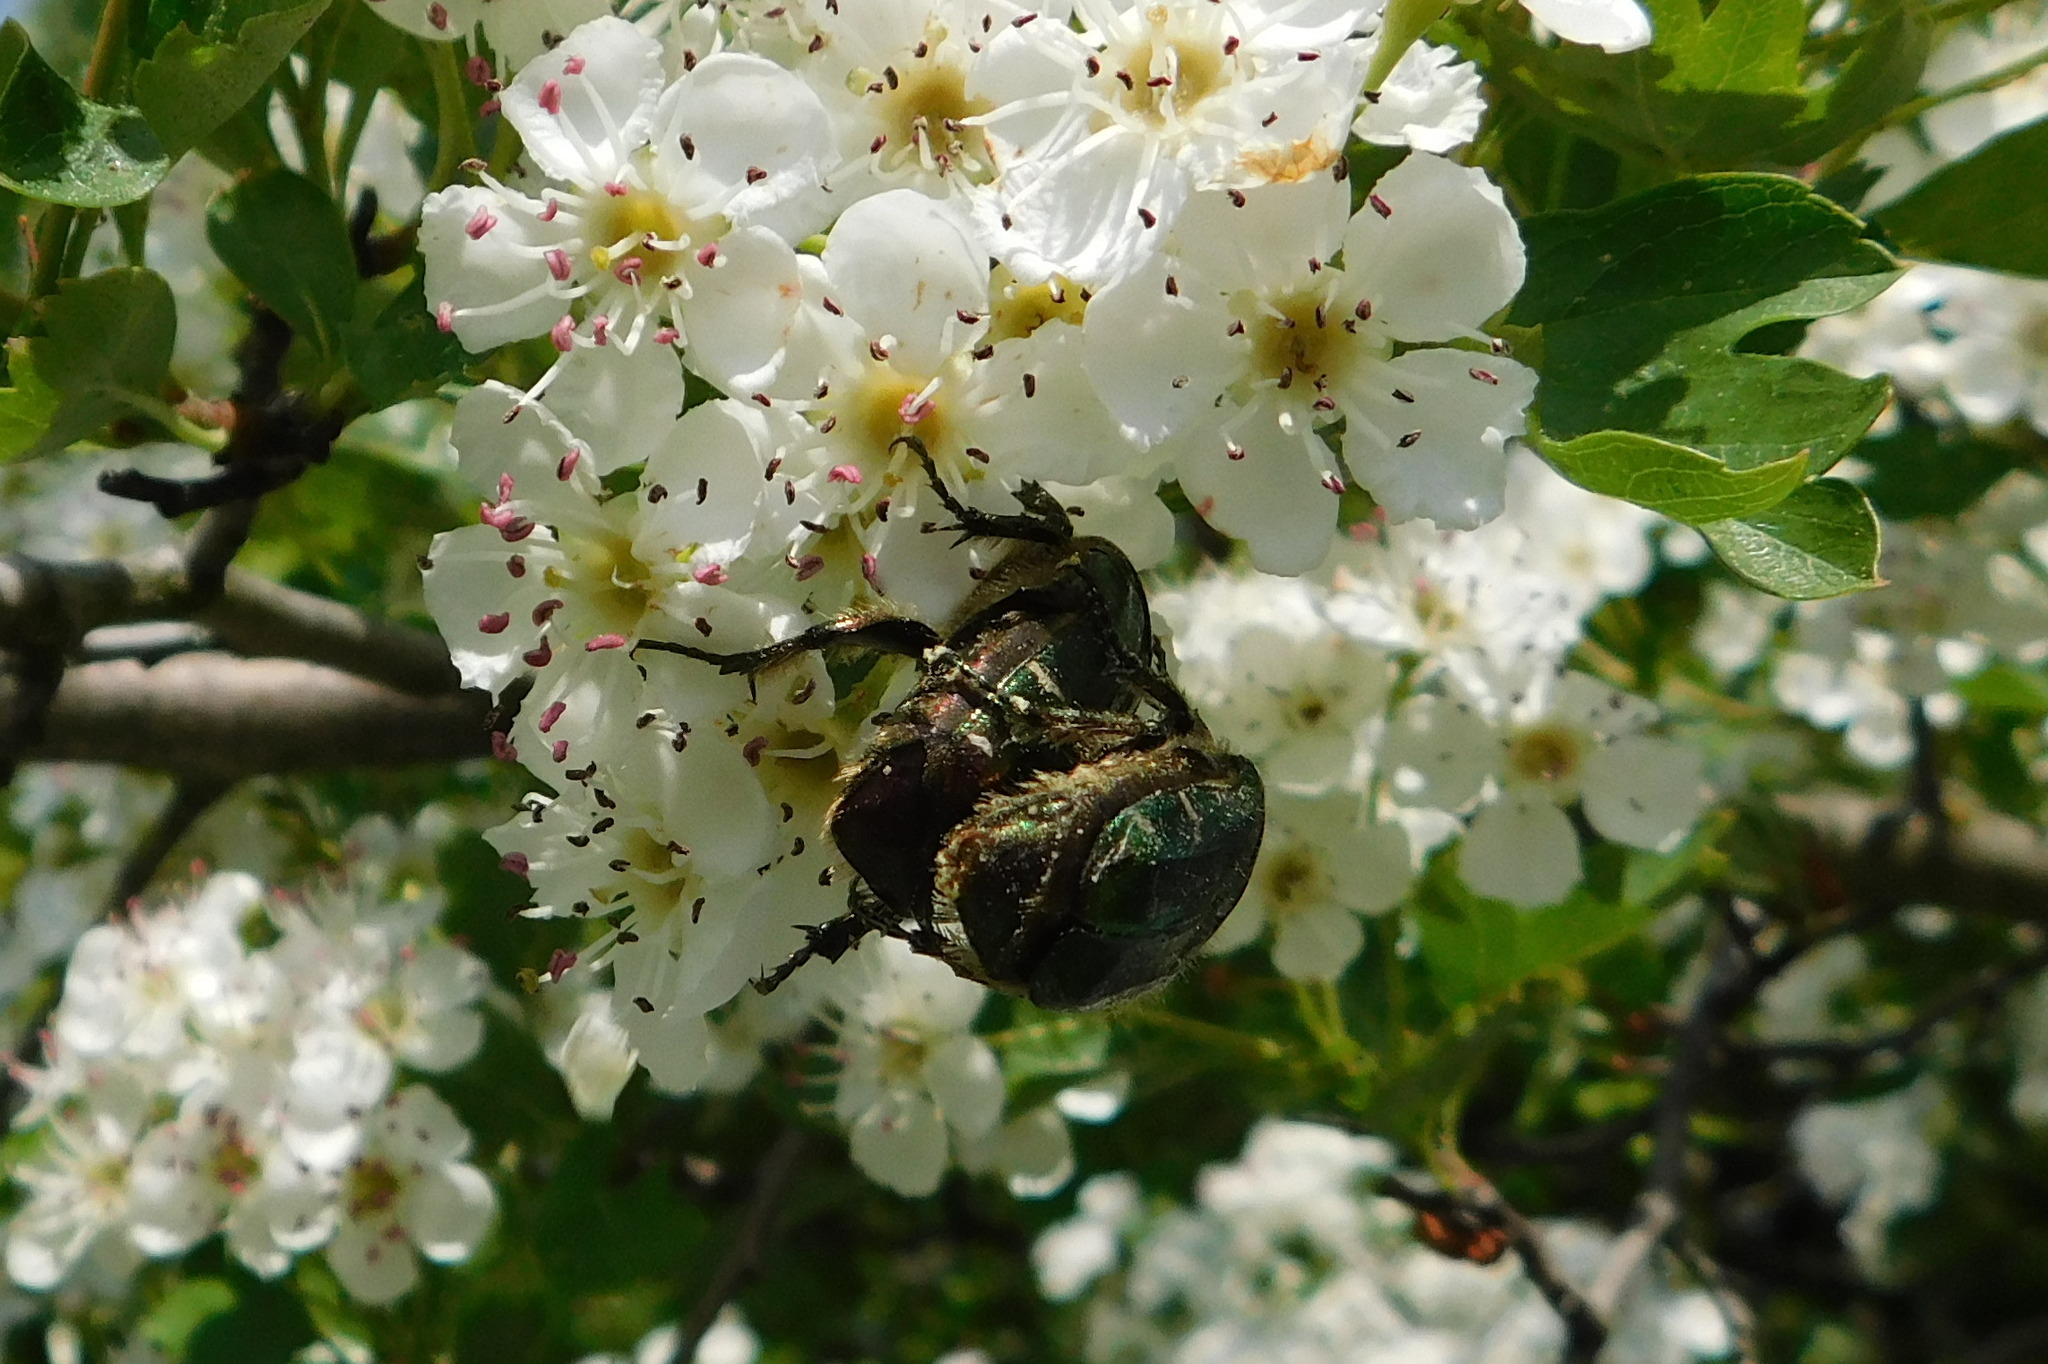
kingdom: Animalia
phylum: Arthropoda
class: Insecta
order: Coleoptera
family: Scarabaeidae
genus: Cetonia
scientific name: Cetonia aurata
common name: Rose chafer
